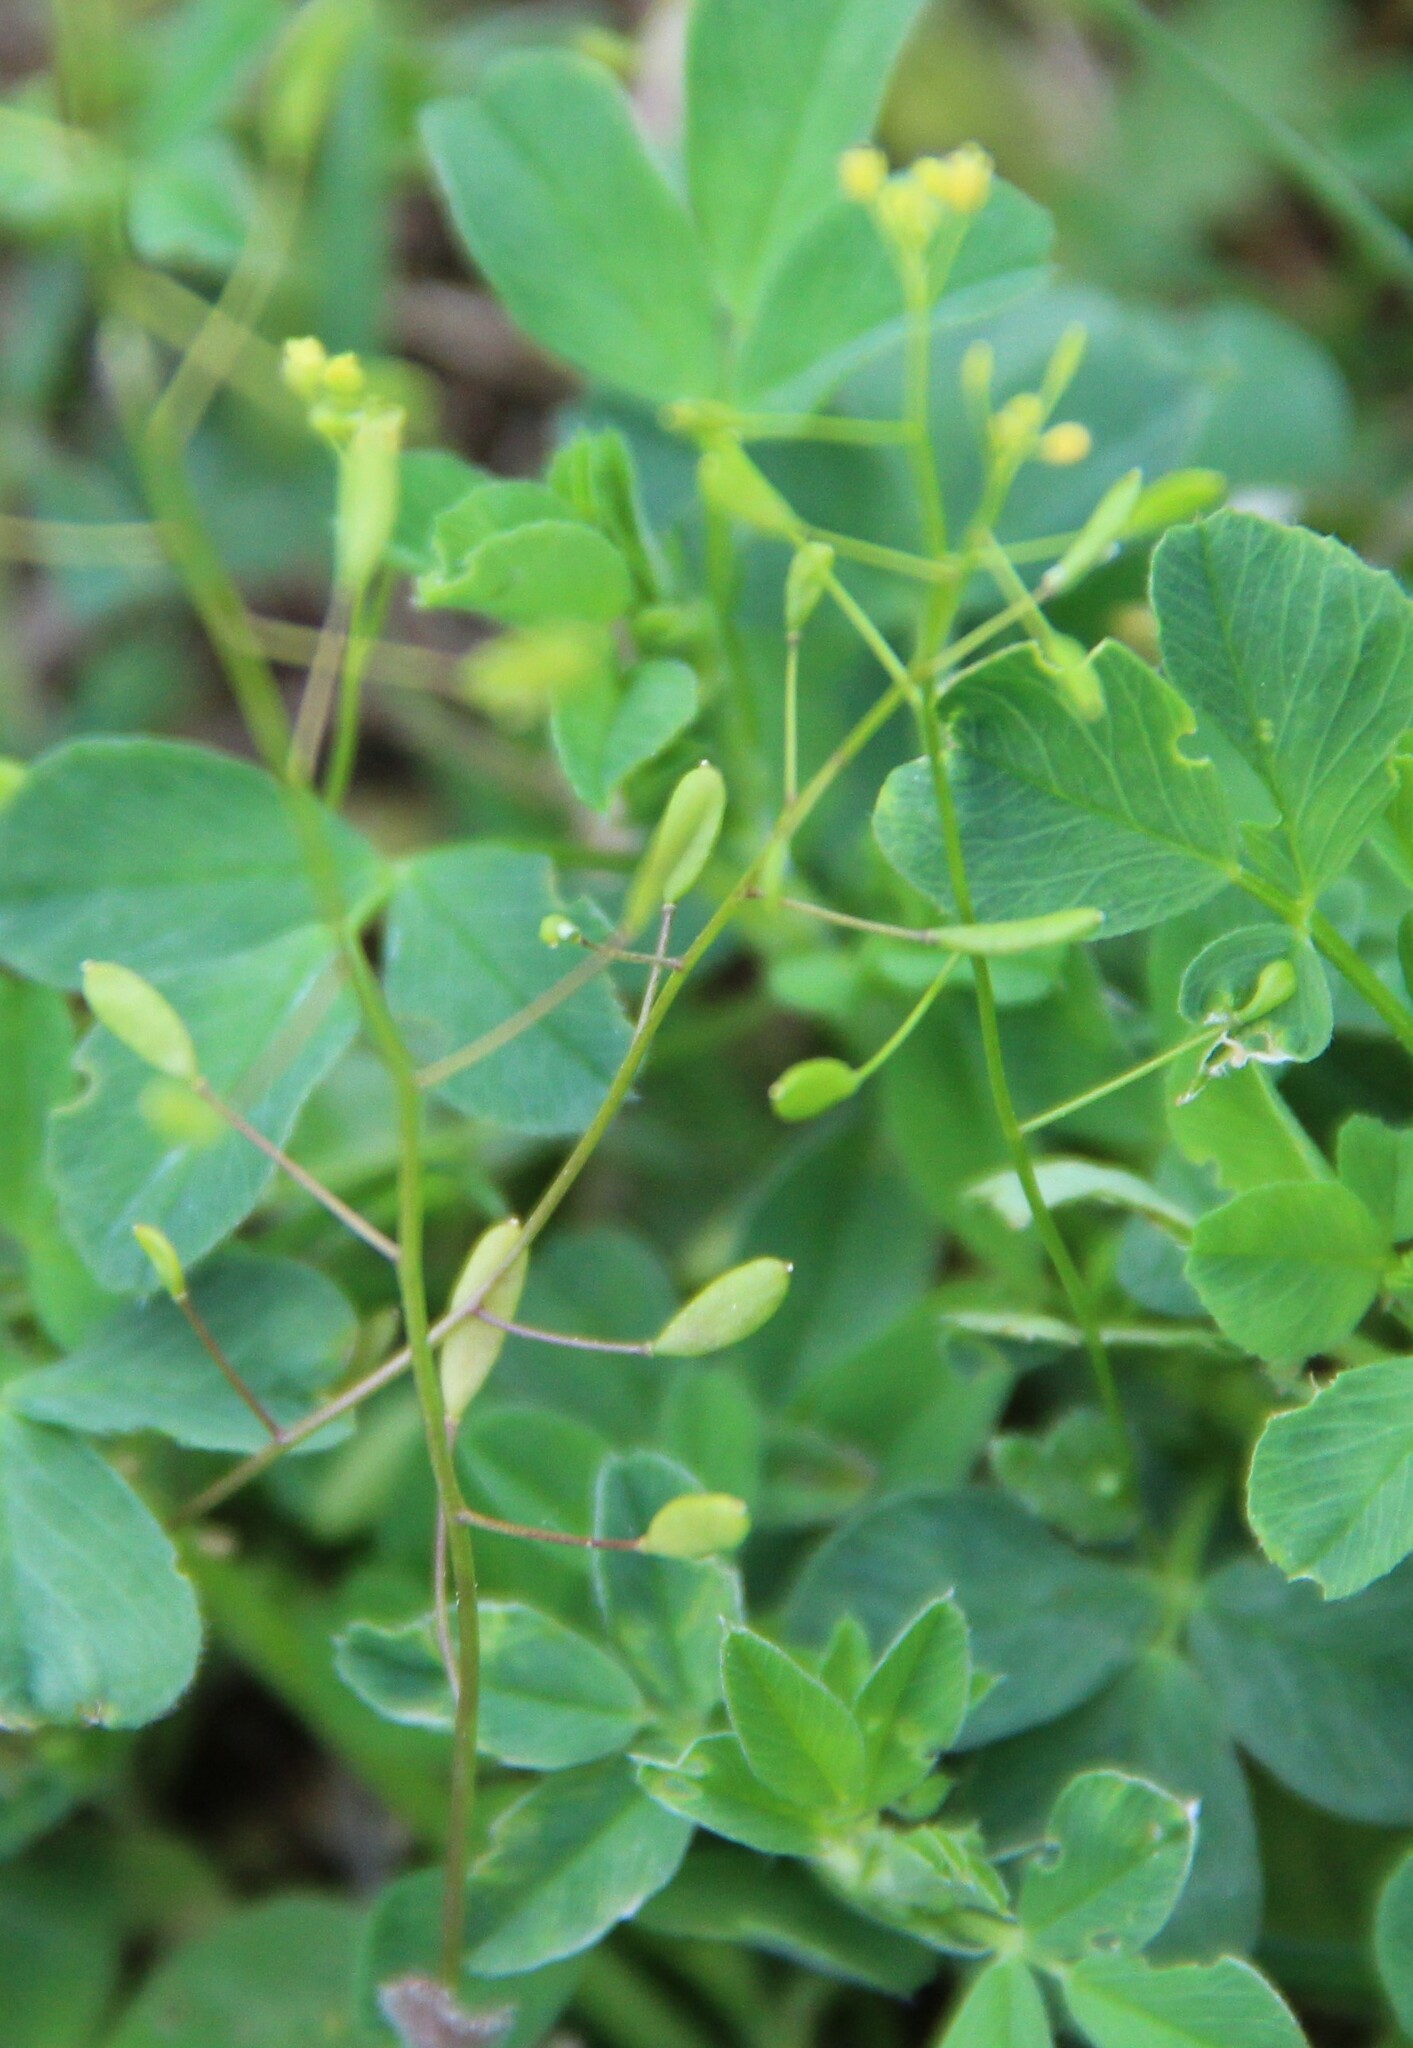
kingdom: Plantae
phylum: Tracheophyta
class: Magnoliopsida
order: Brassicales
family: Brassicaceae
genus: Draba
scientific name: Draba nemorosa
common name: Wood whitlow-grass
